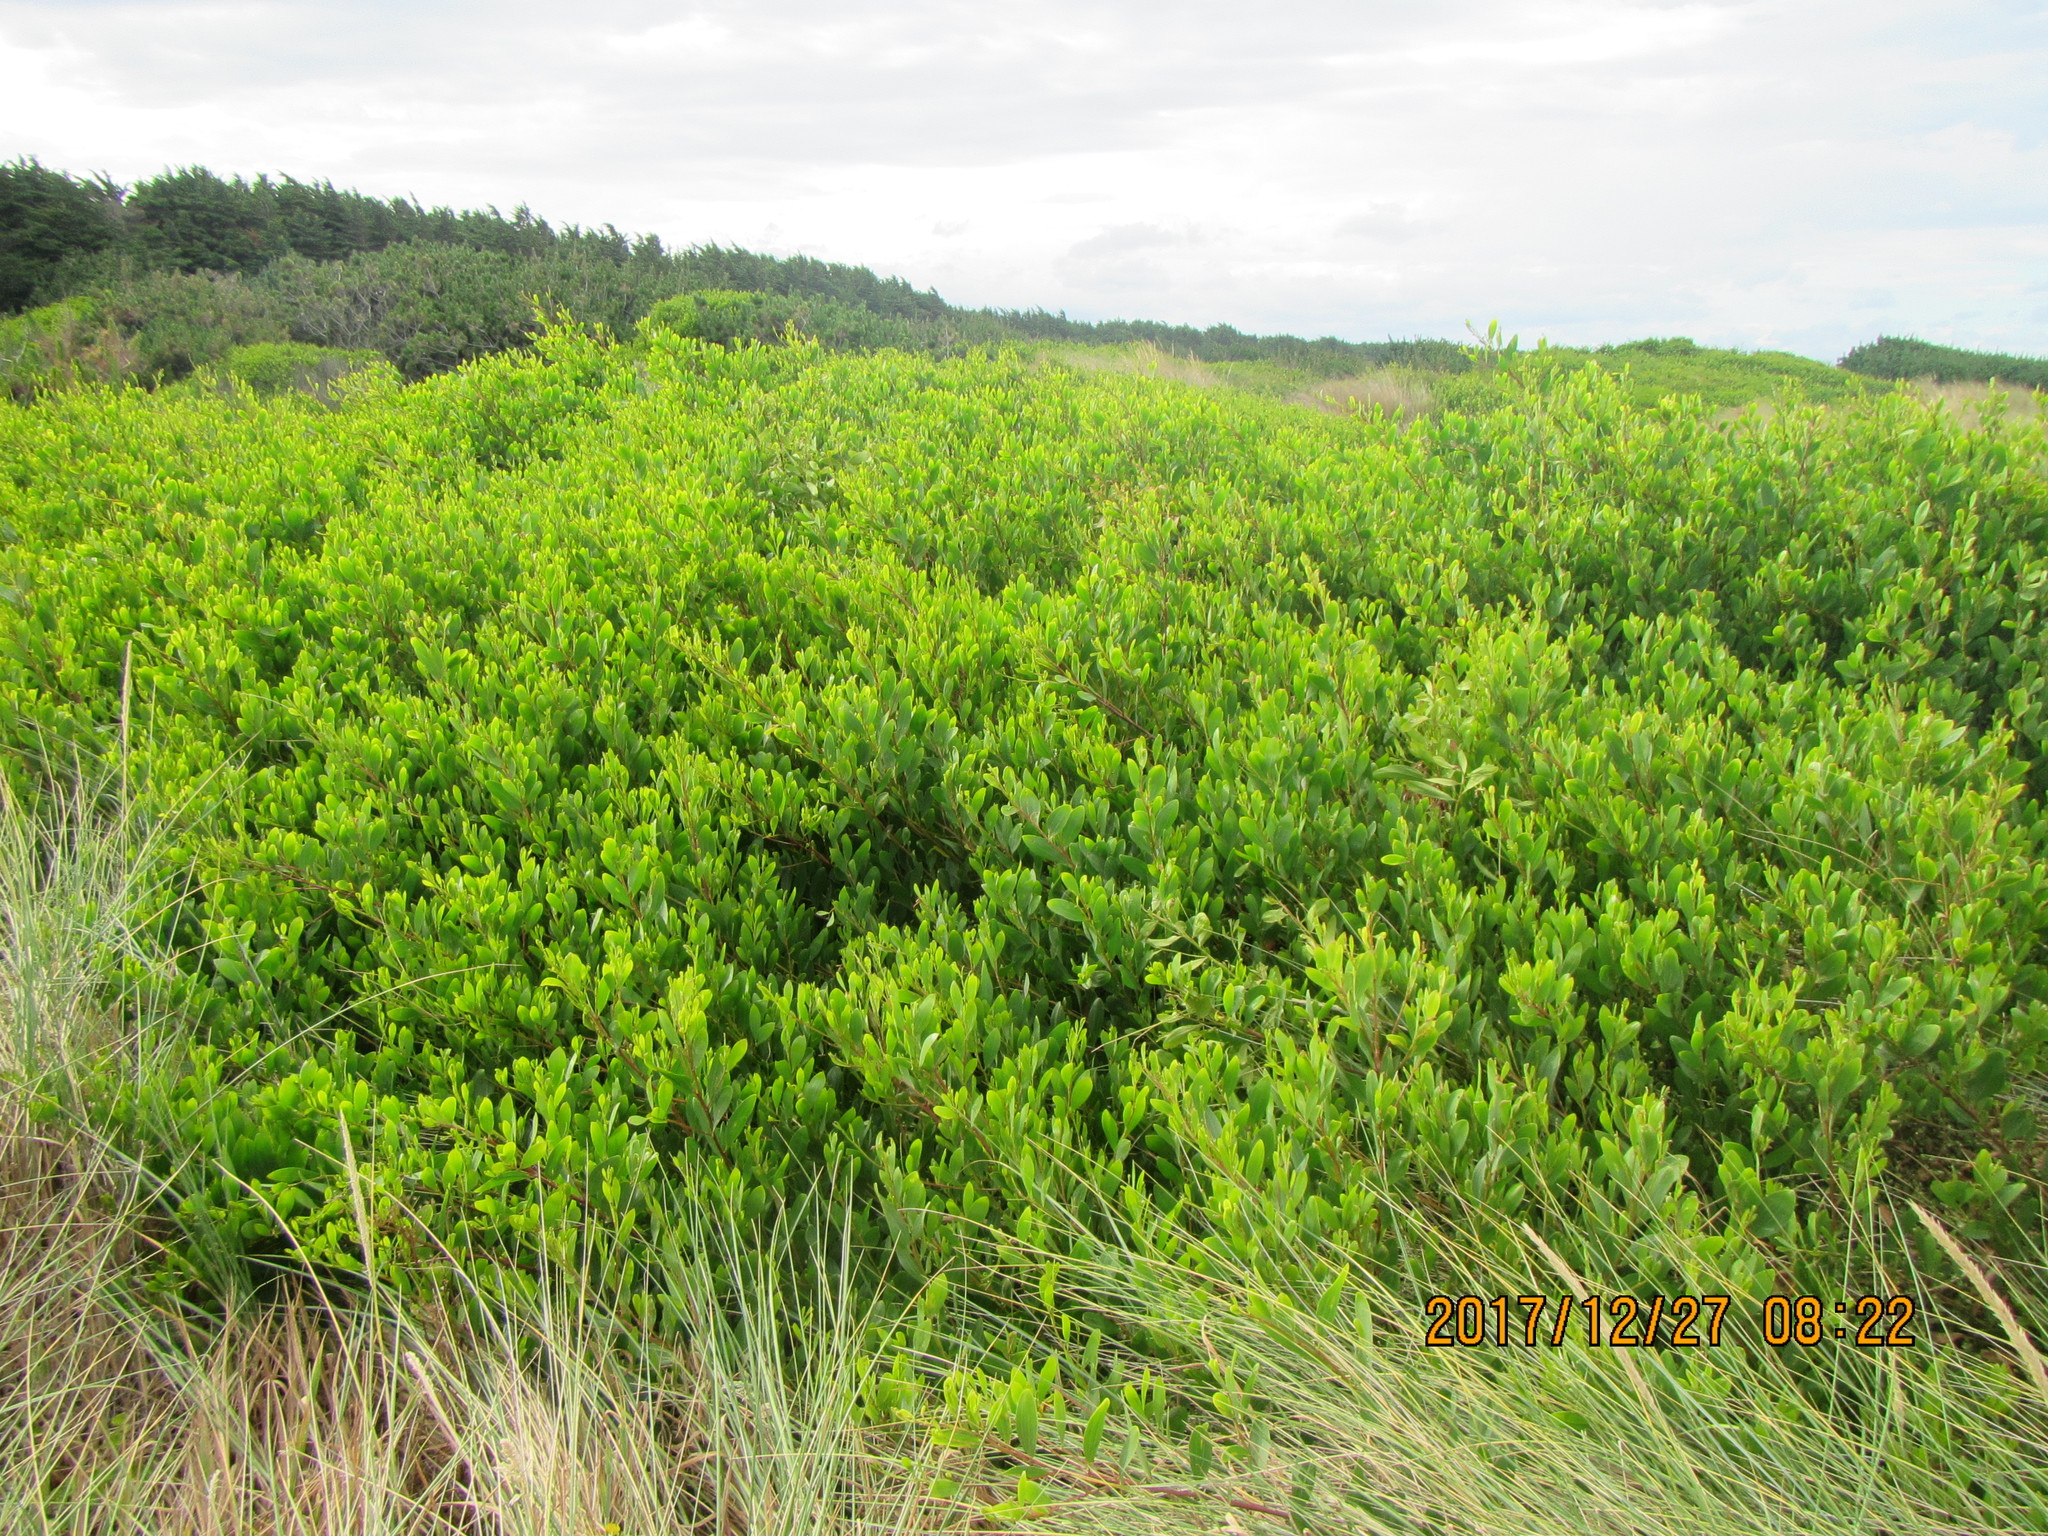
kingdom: Plantae
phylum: Tracheophyta
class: Magnoliopsida
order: Fabales
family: Fabaceae
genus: Acacia
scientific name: Acacia longifolia
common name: Sydney golden wattle
